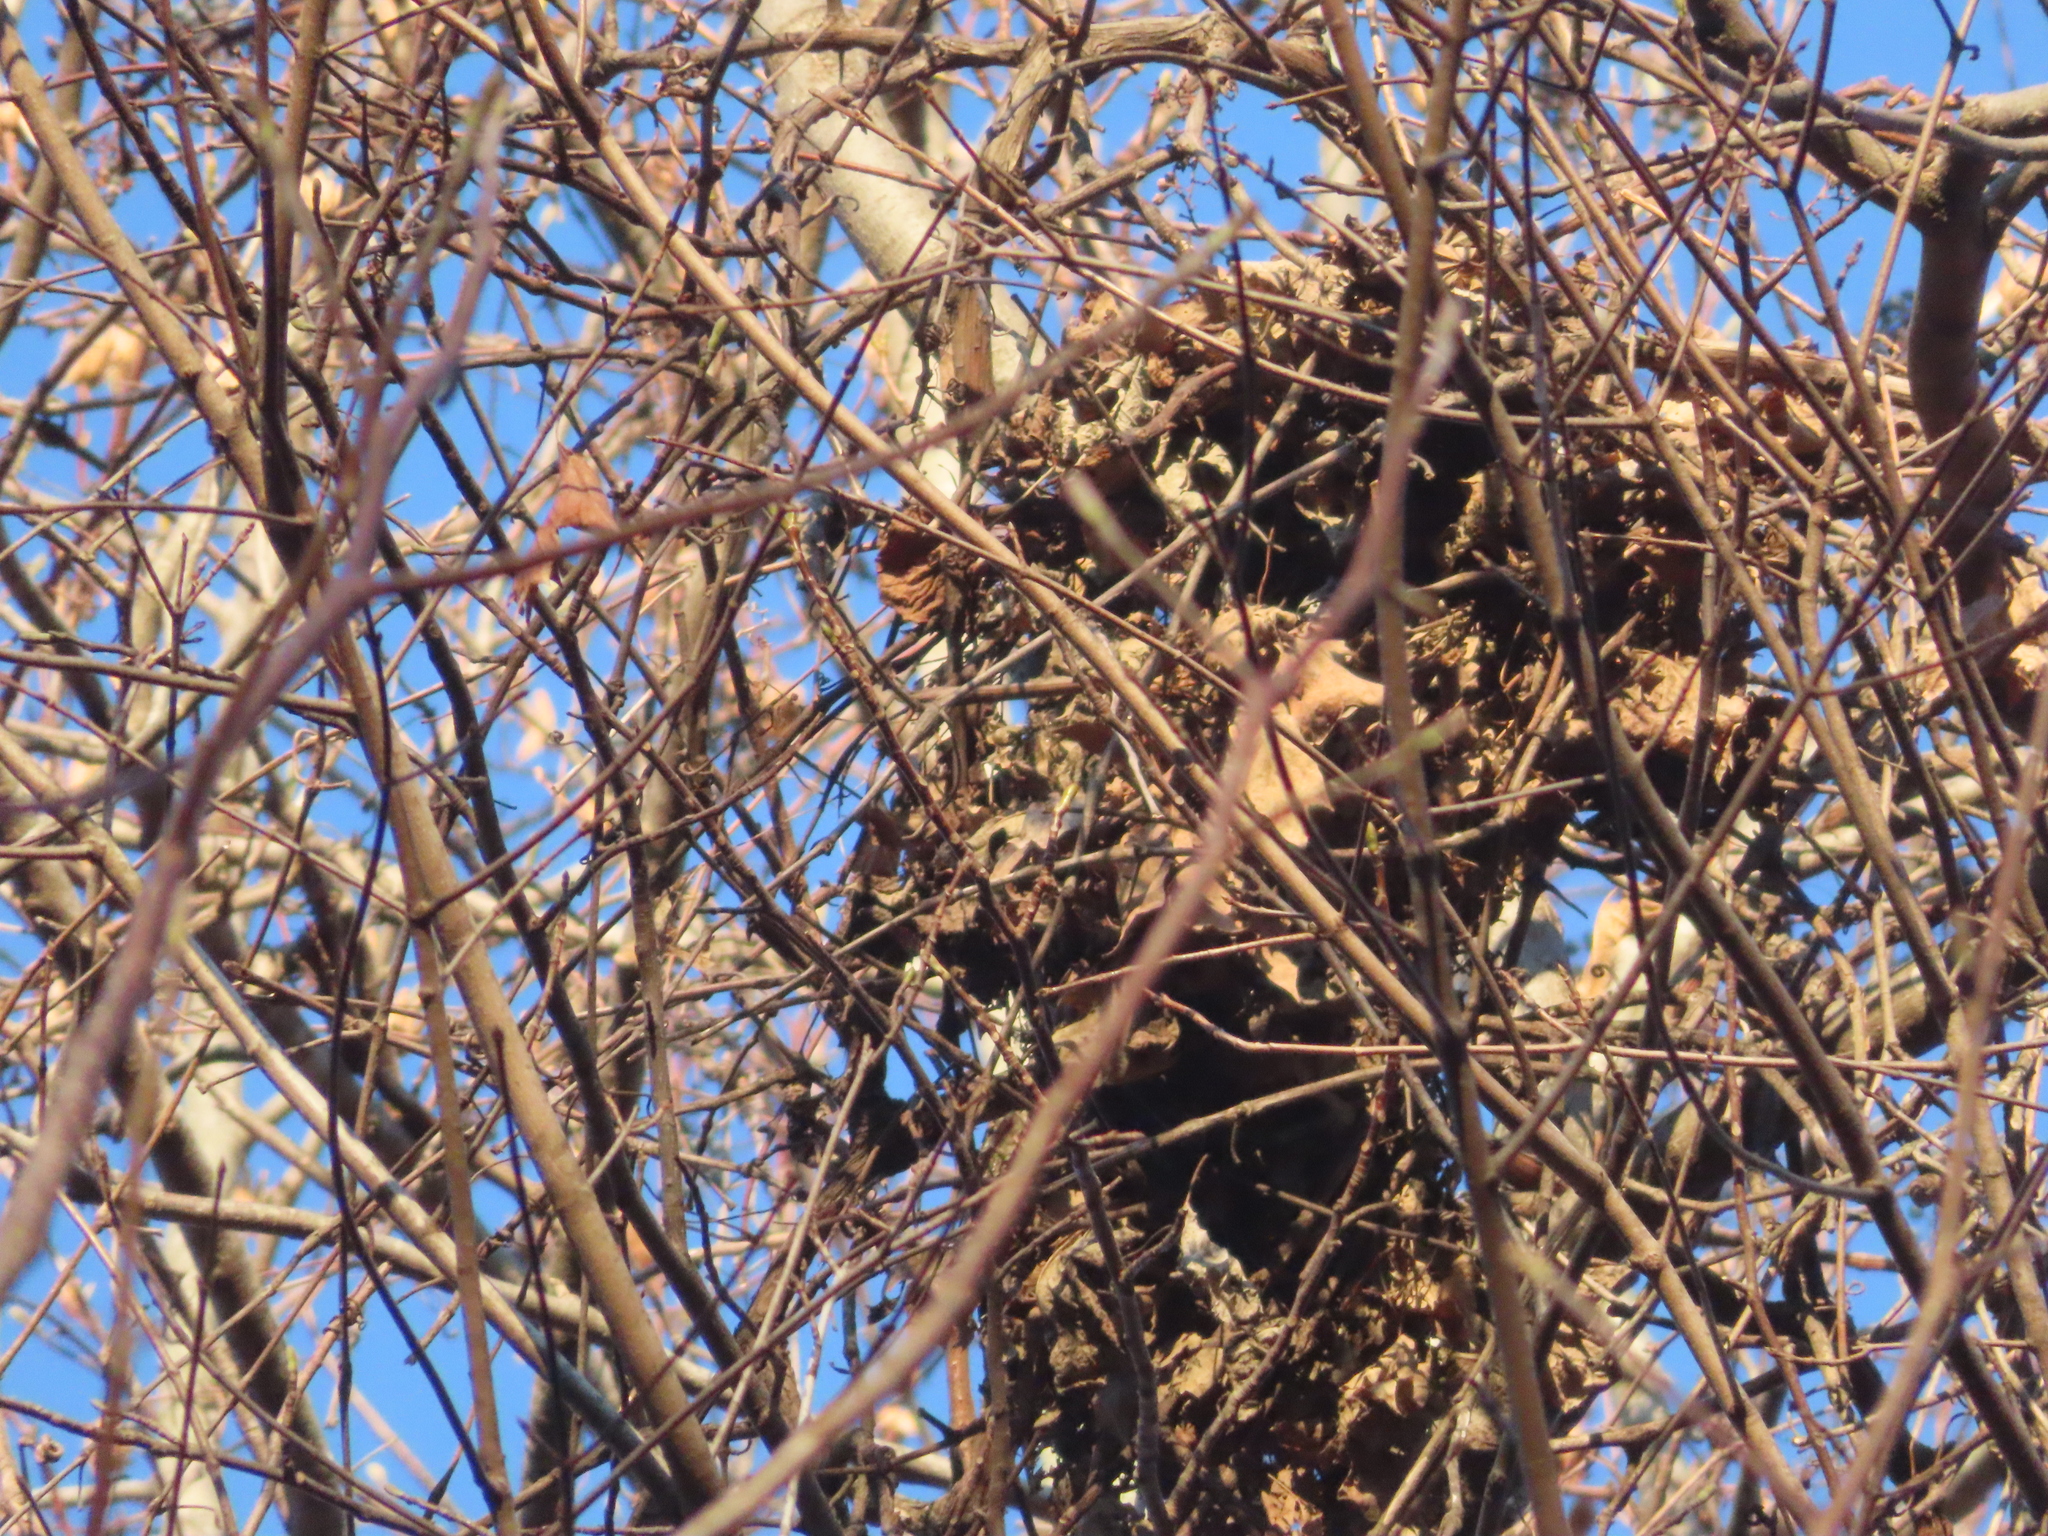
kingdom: Animalia
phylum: Chordata
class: Mammalia
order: Rodentia
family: Sciuridae
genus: Sciurus
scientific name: Sciurus carolinensis
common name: Eastern gray squirrel
